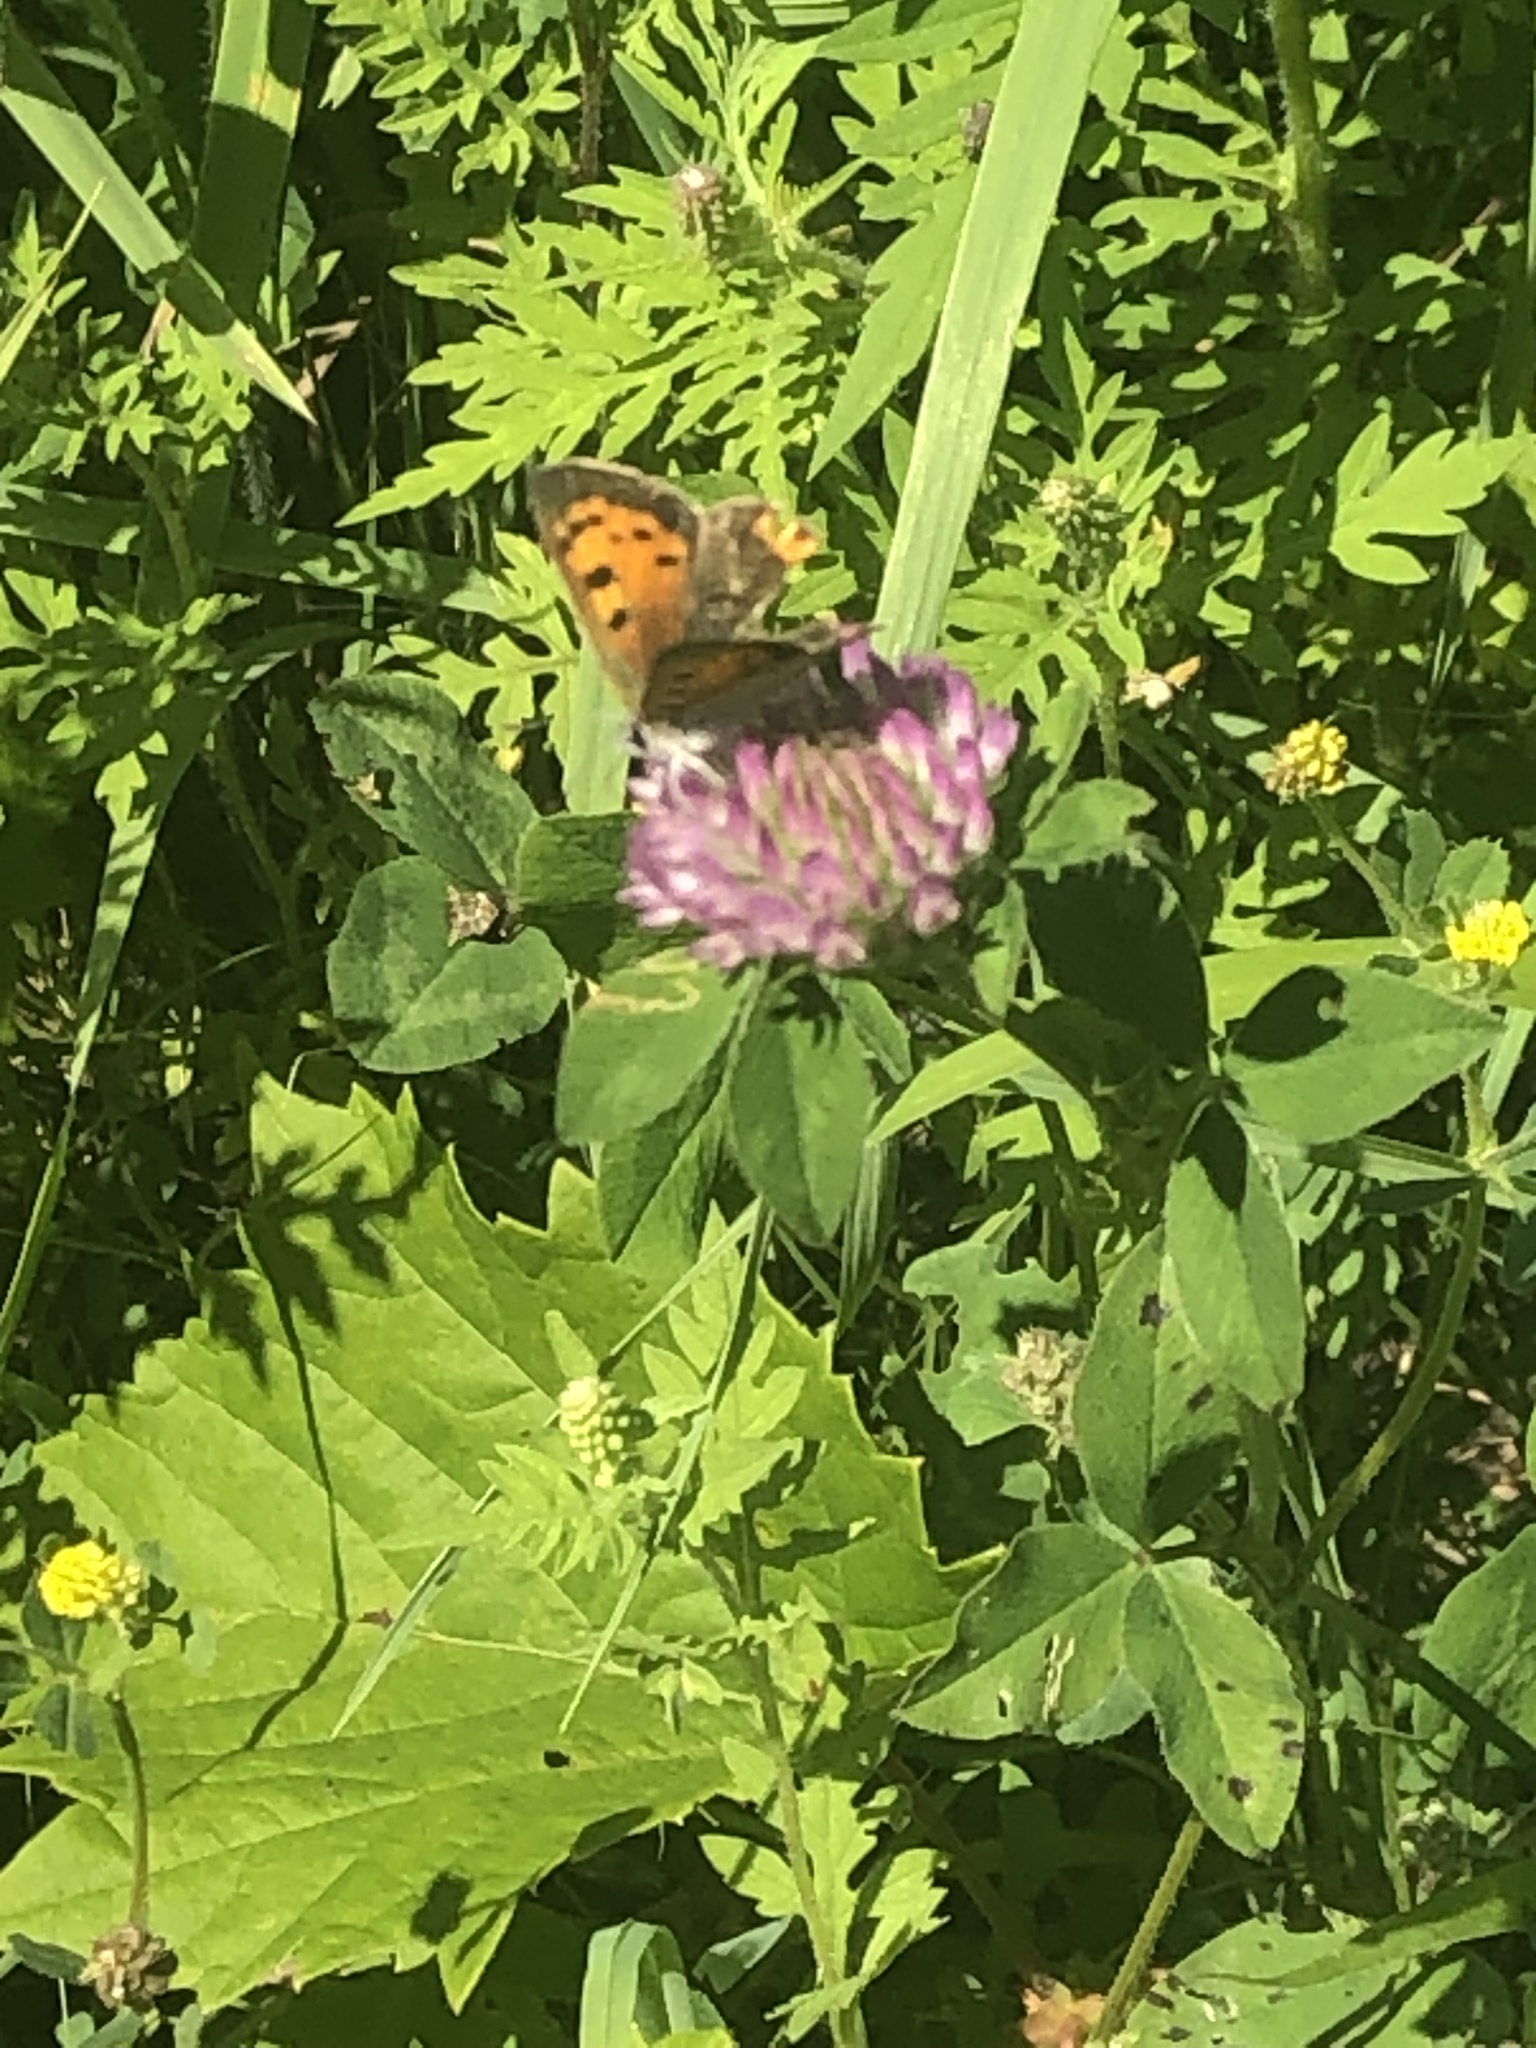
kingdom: Animalia
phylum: Arthropoda
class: Insecta
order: Lepidoptera
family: Lycaenidae
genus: Lycaena
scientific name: Lycaena hypophlaeas
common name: American copper
